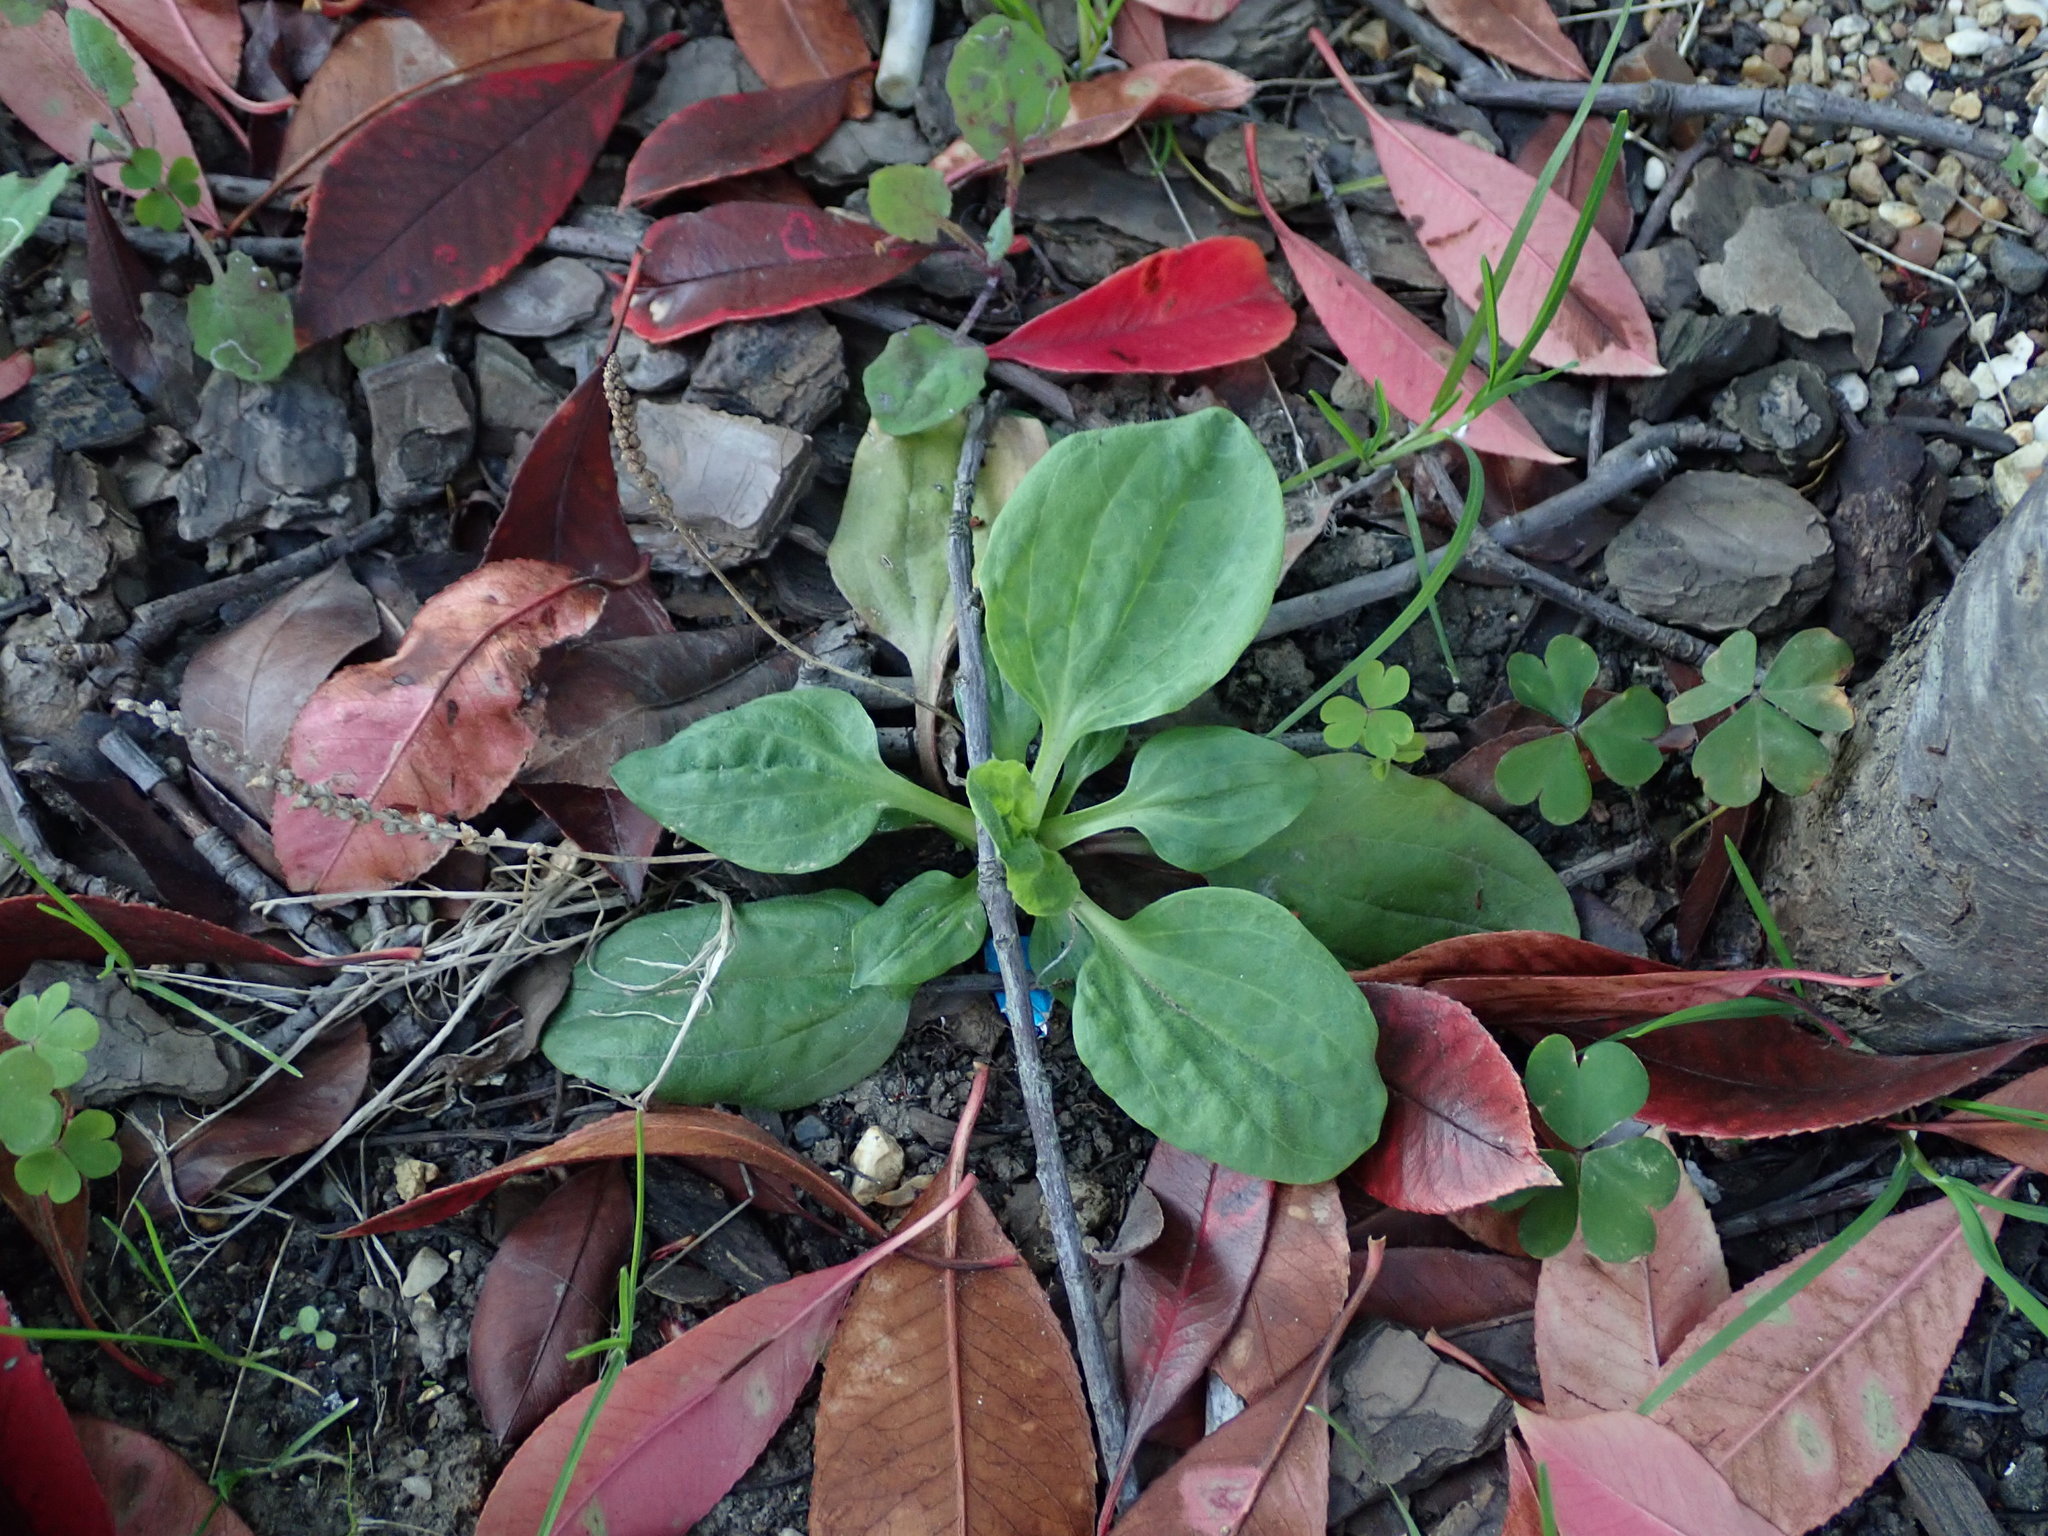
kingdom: Plantae
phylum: Tracheophyta
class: Magnoliopsida
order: Lamiales
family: Plantaginaceae
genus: Plantago
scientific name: Plantago major
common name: Common plantain
